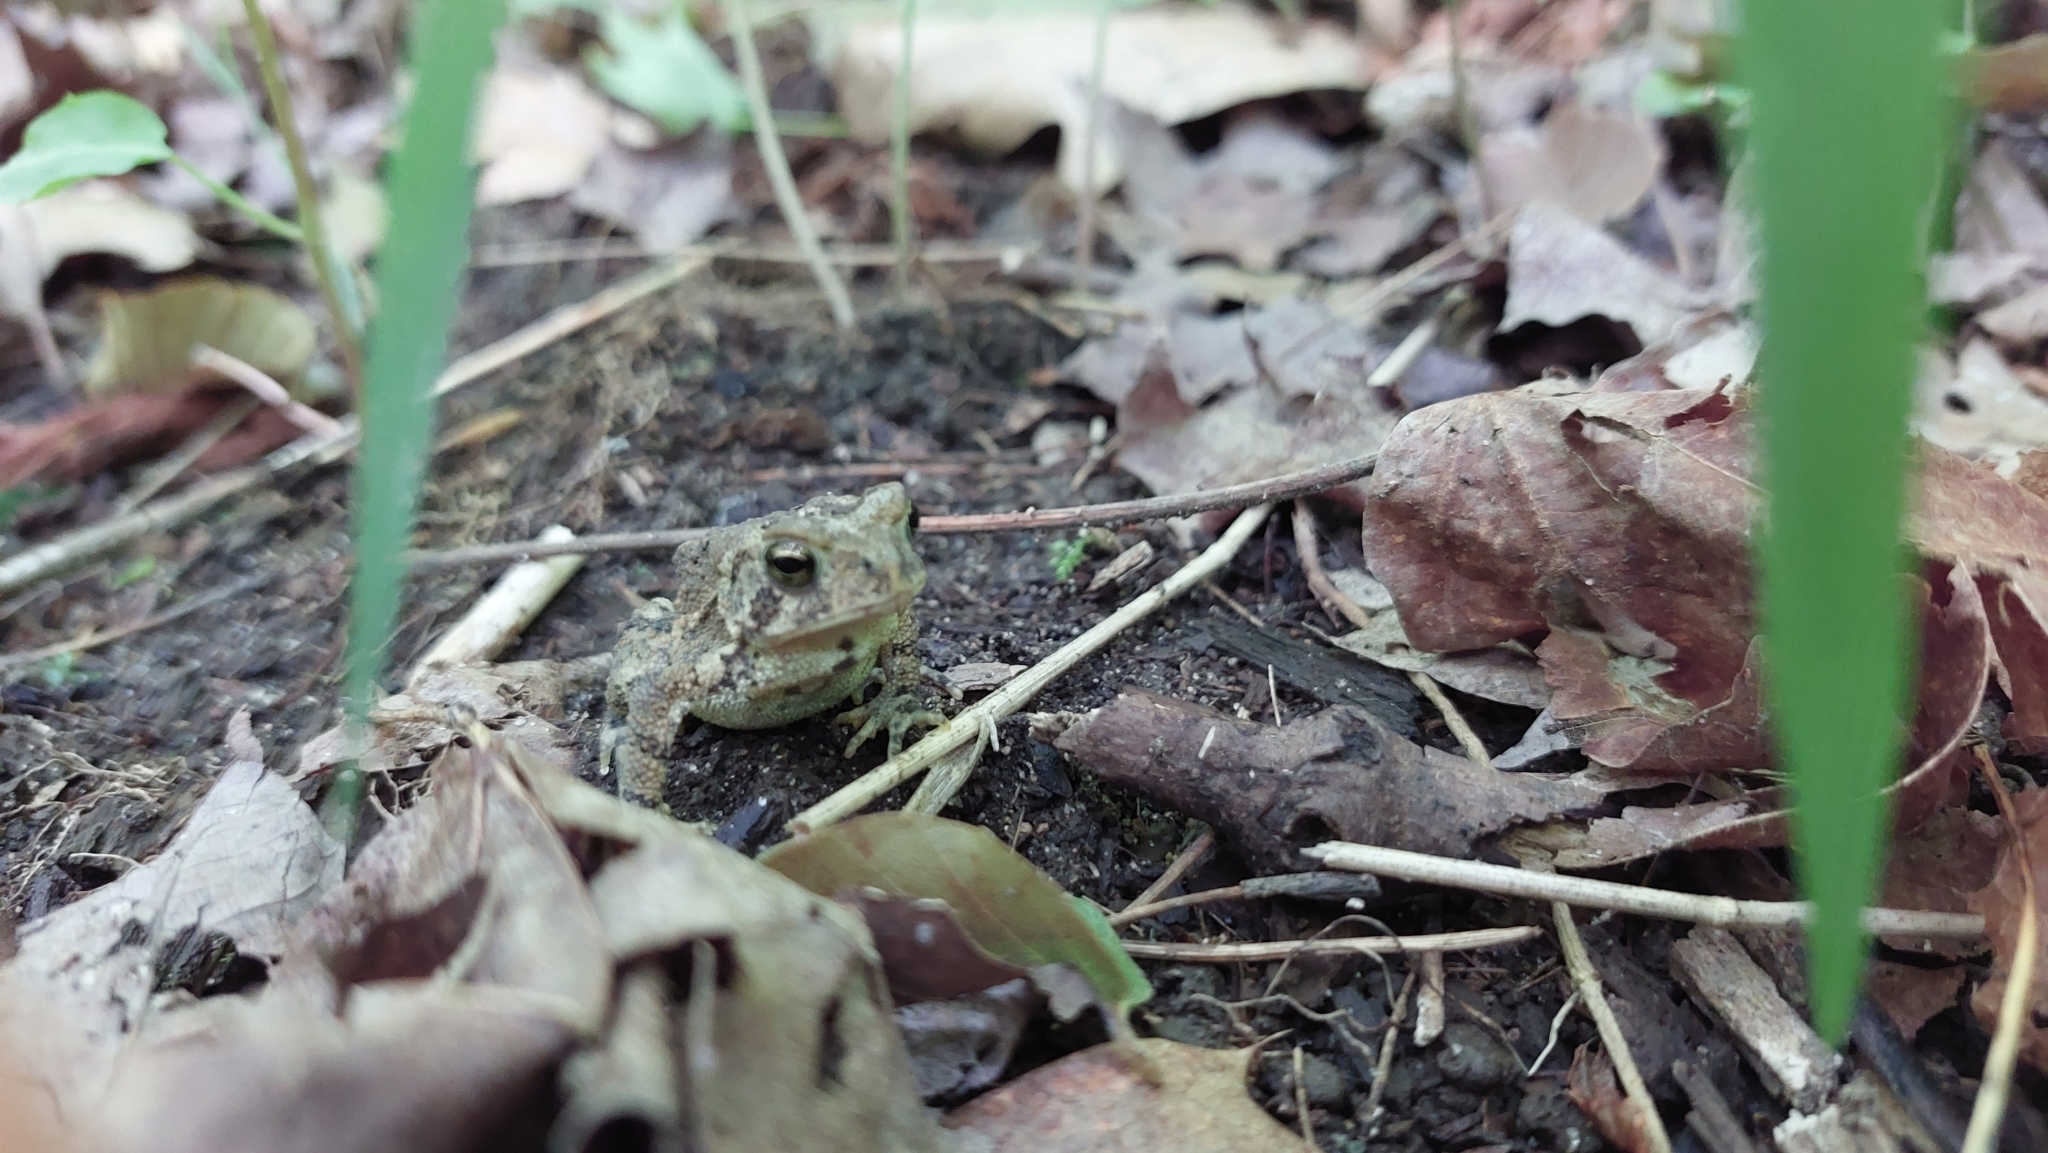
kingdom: Animalia
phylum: Chordata
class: Amphibia
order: Anura
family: Bufonidae
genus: Anaxyrus
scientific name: Anaxyrus americanus
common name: American toad
